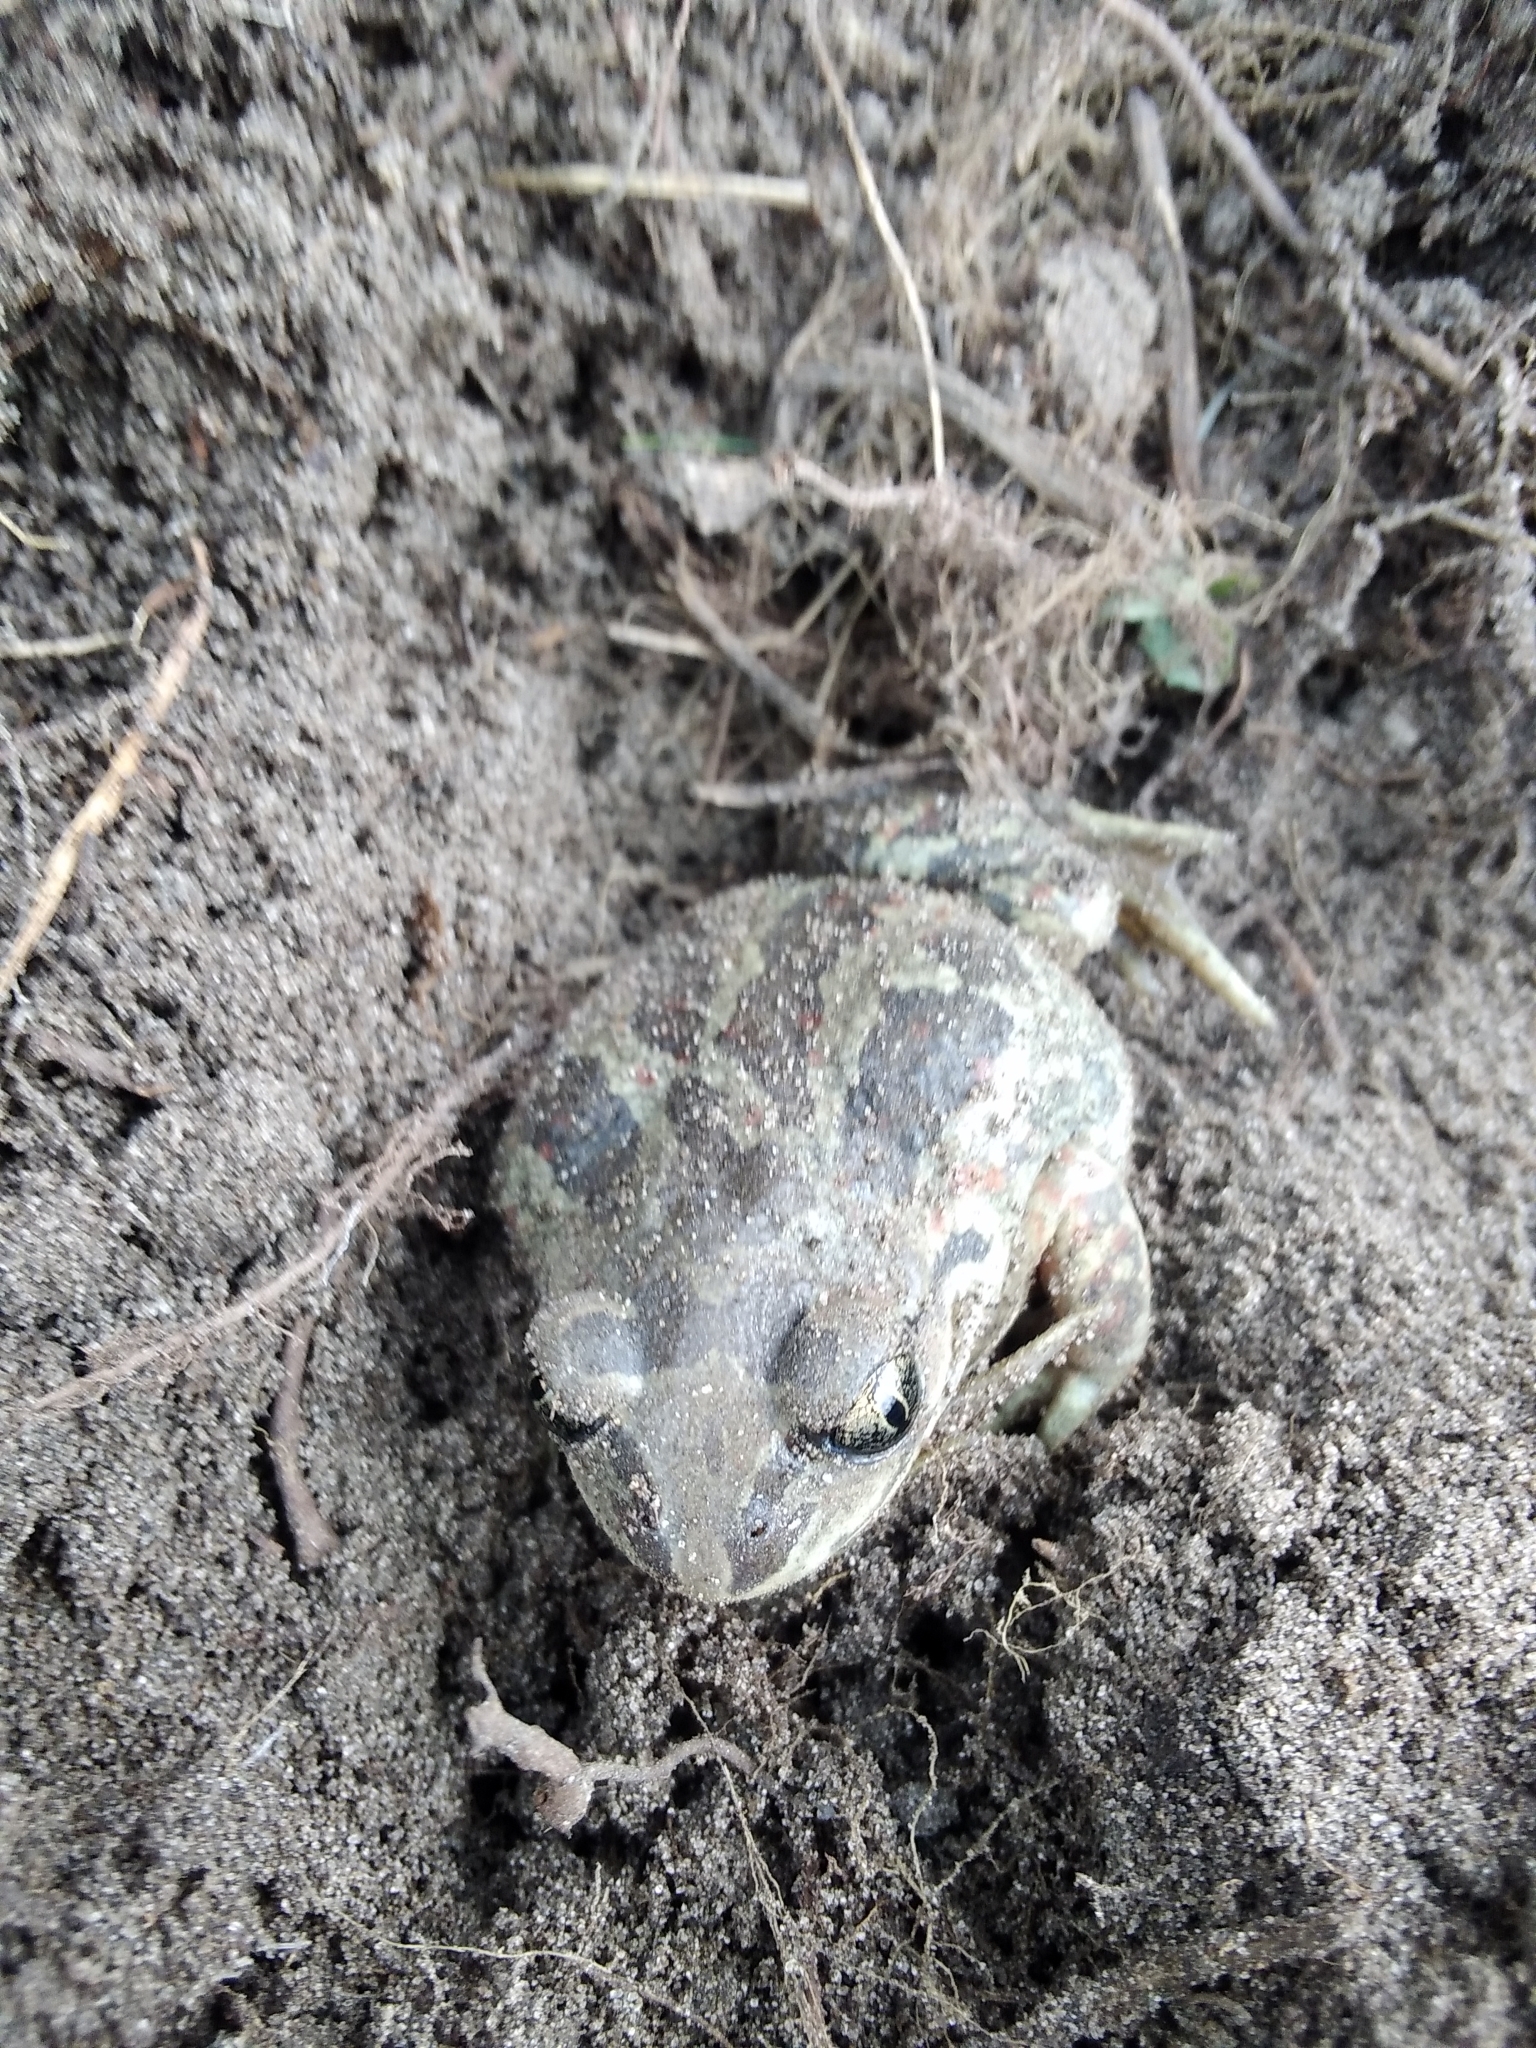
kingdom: Animalia
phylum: Chordata
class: Amphibia
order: Anura
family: Pelobatidae
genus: Pelobates
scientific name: Pelobates fuscus
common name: Common eurasian spadefoot toad
